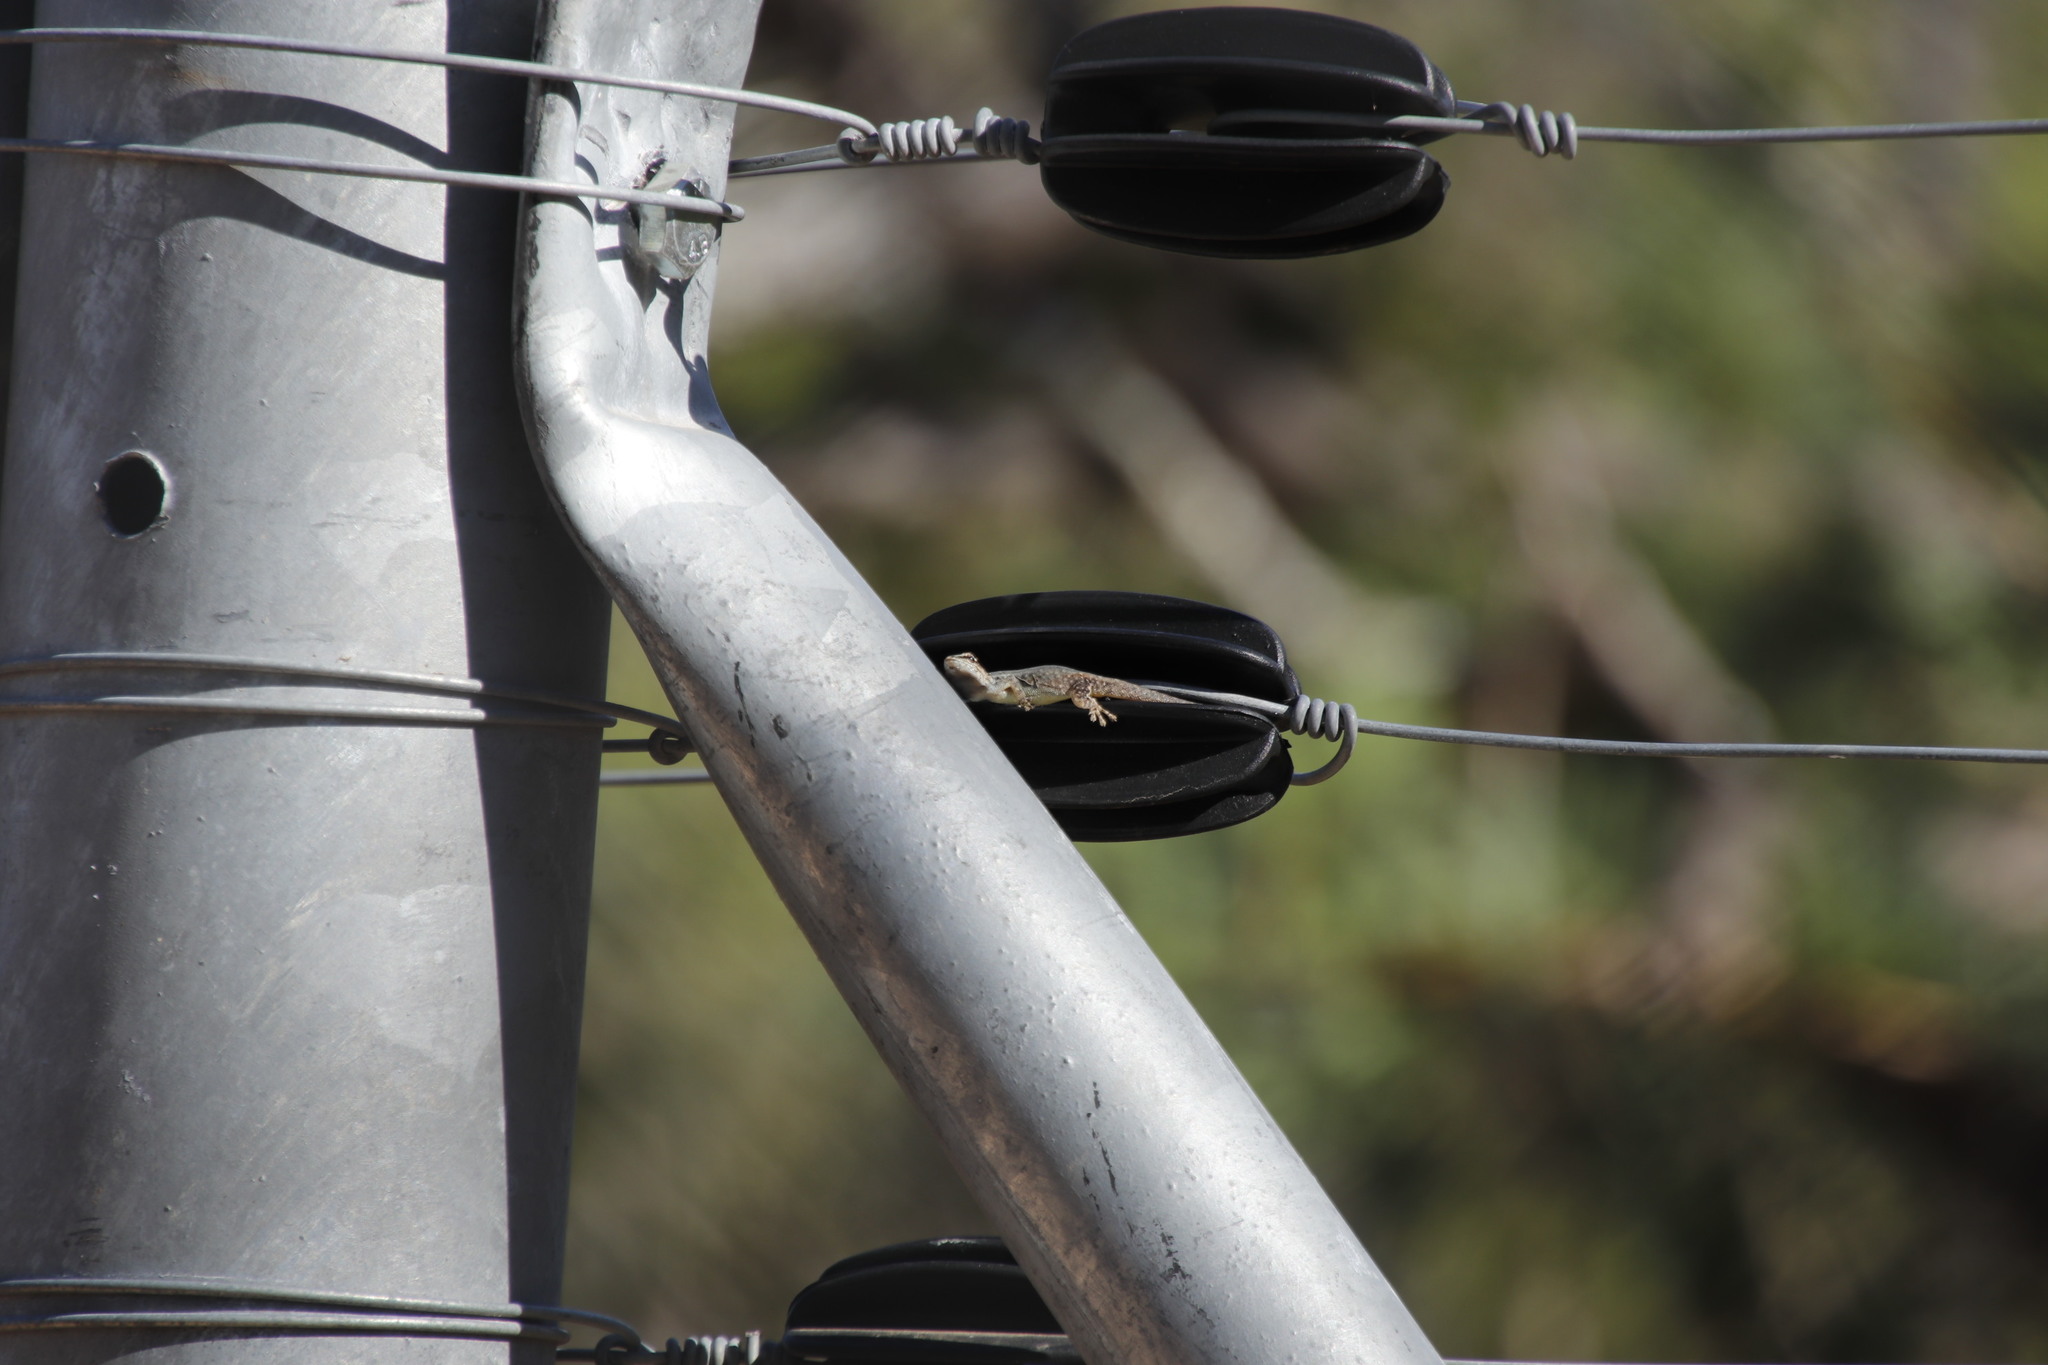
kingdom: Animalia
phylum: Chordata
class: Squamata
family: Gekkonidae
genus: Lygodactylus
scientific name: Lygodactylus capensis
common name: Cape dwarf gecko
